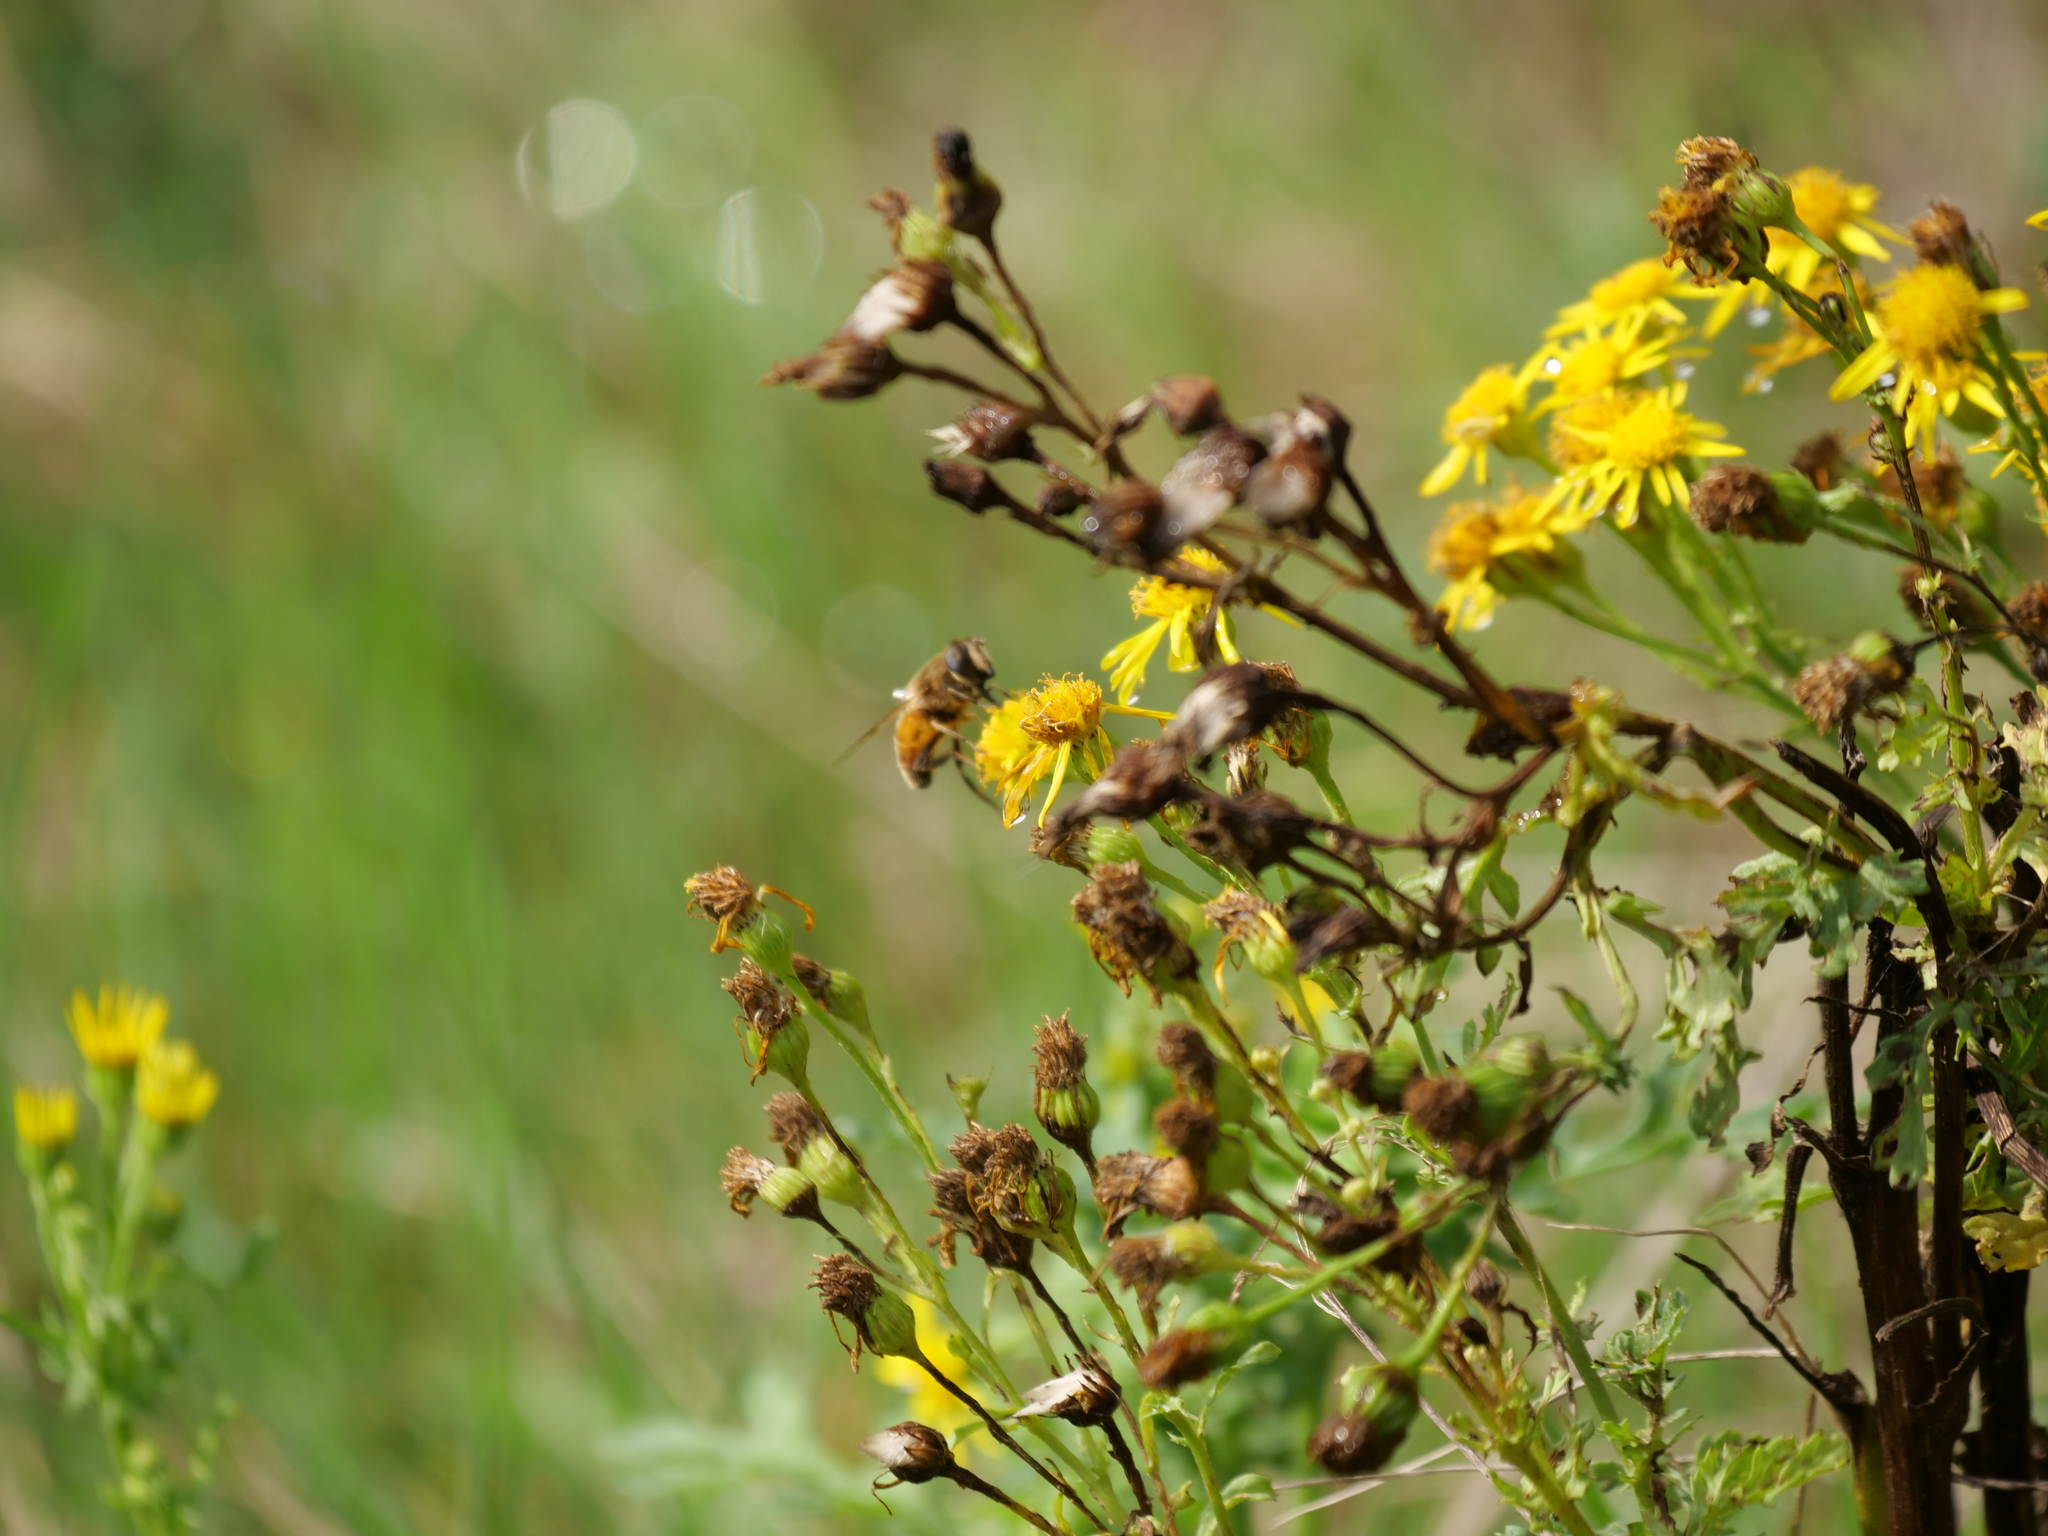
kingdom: Plantae
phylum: Tracheophyta
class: Magnoliopsida
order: Asterales
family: Asteraceae
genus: Jacobaea
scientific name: Jacobaea vulgaris
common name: Stinking willie
